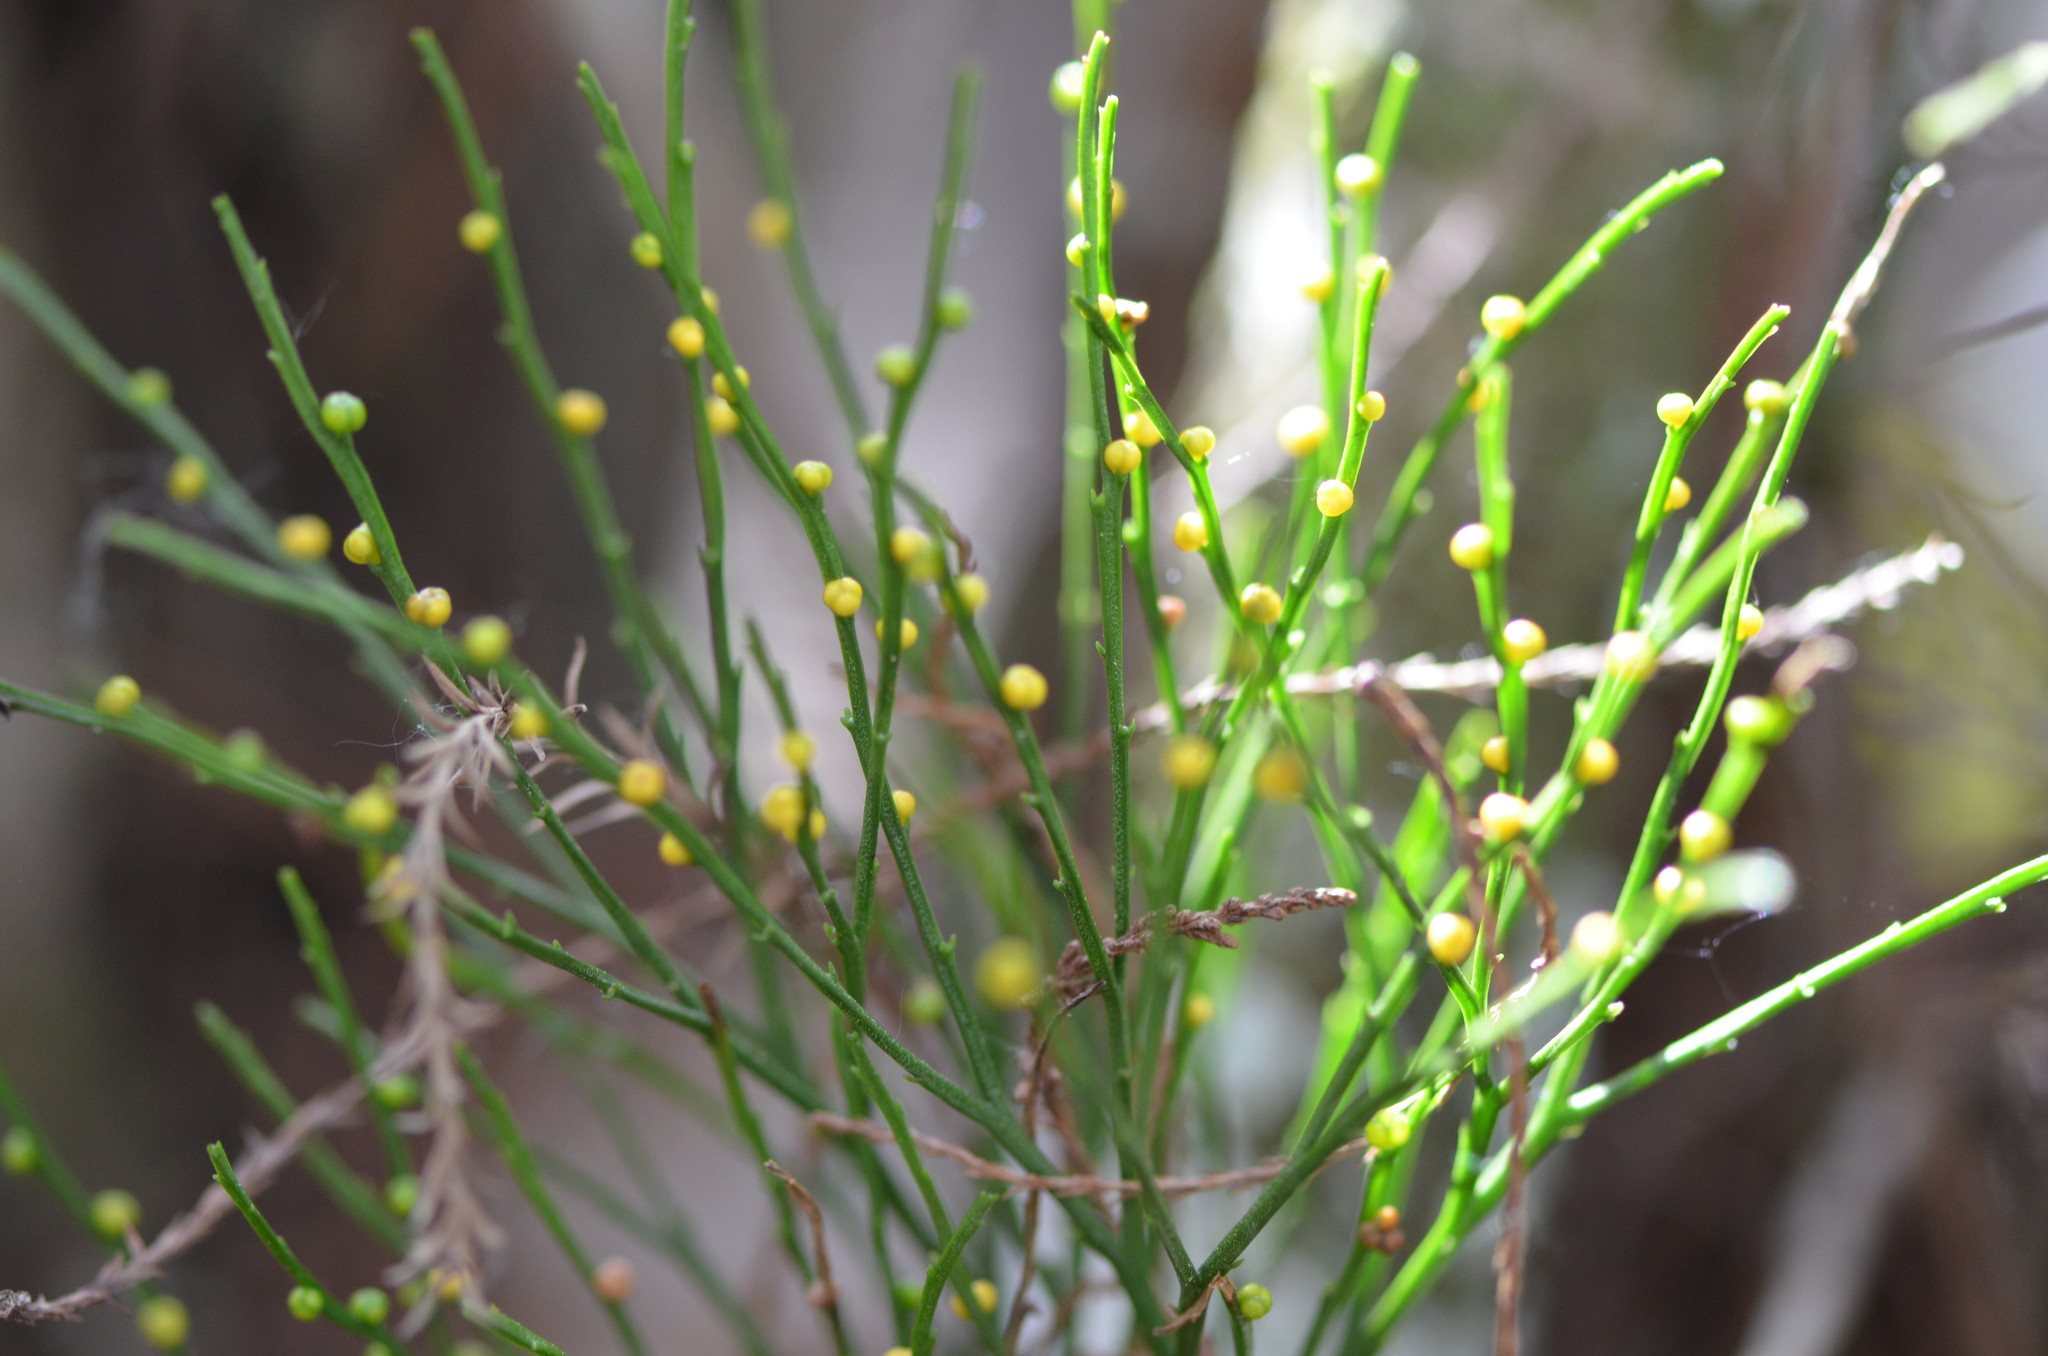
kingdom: Plantae
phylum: Tracheophyta
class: Polypodiopsida
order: Psilotales
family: Psilotaceae
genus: Psilotum
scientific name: Psilotum nudum
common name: Skeleton fork fern
